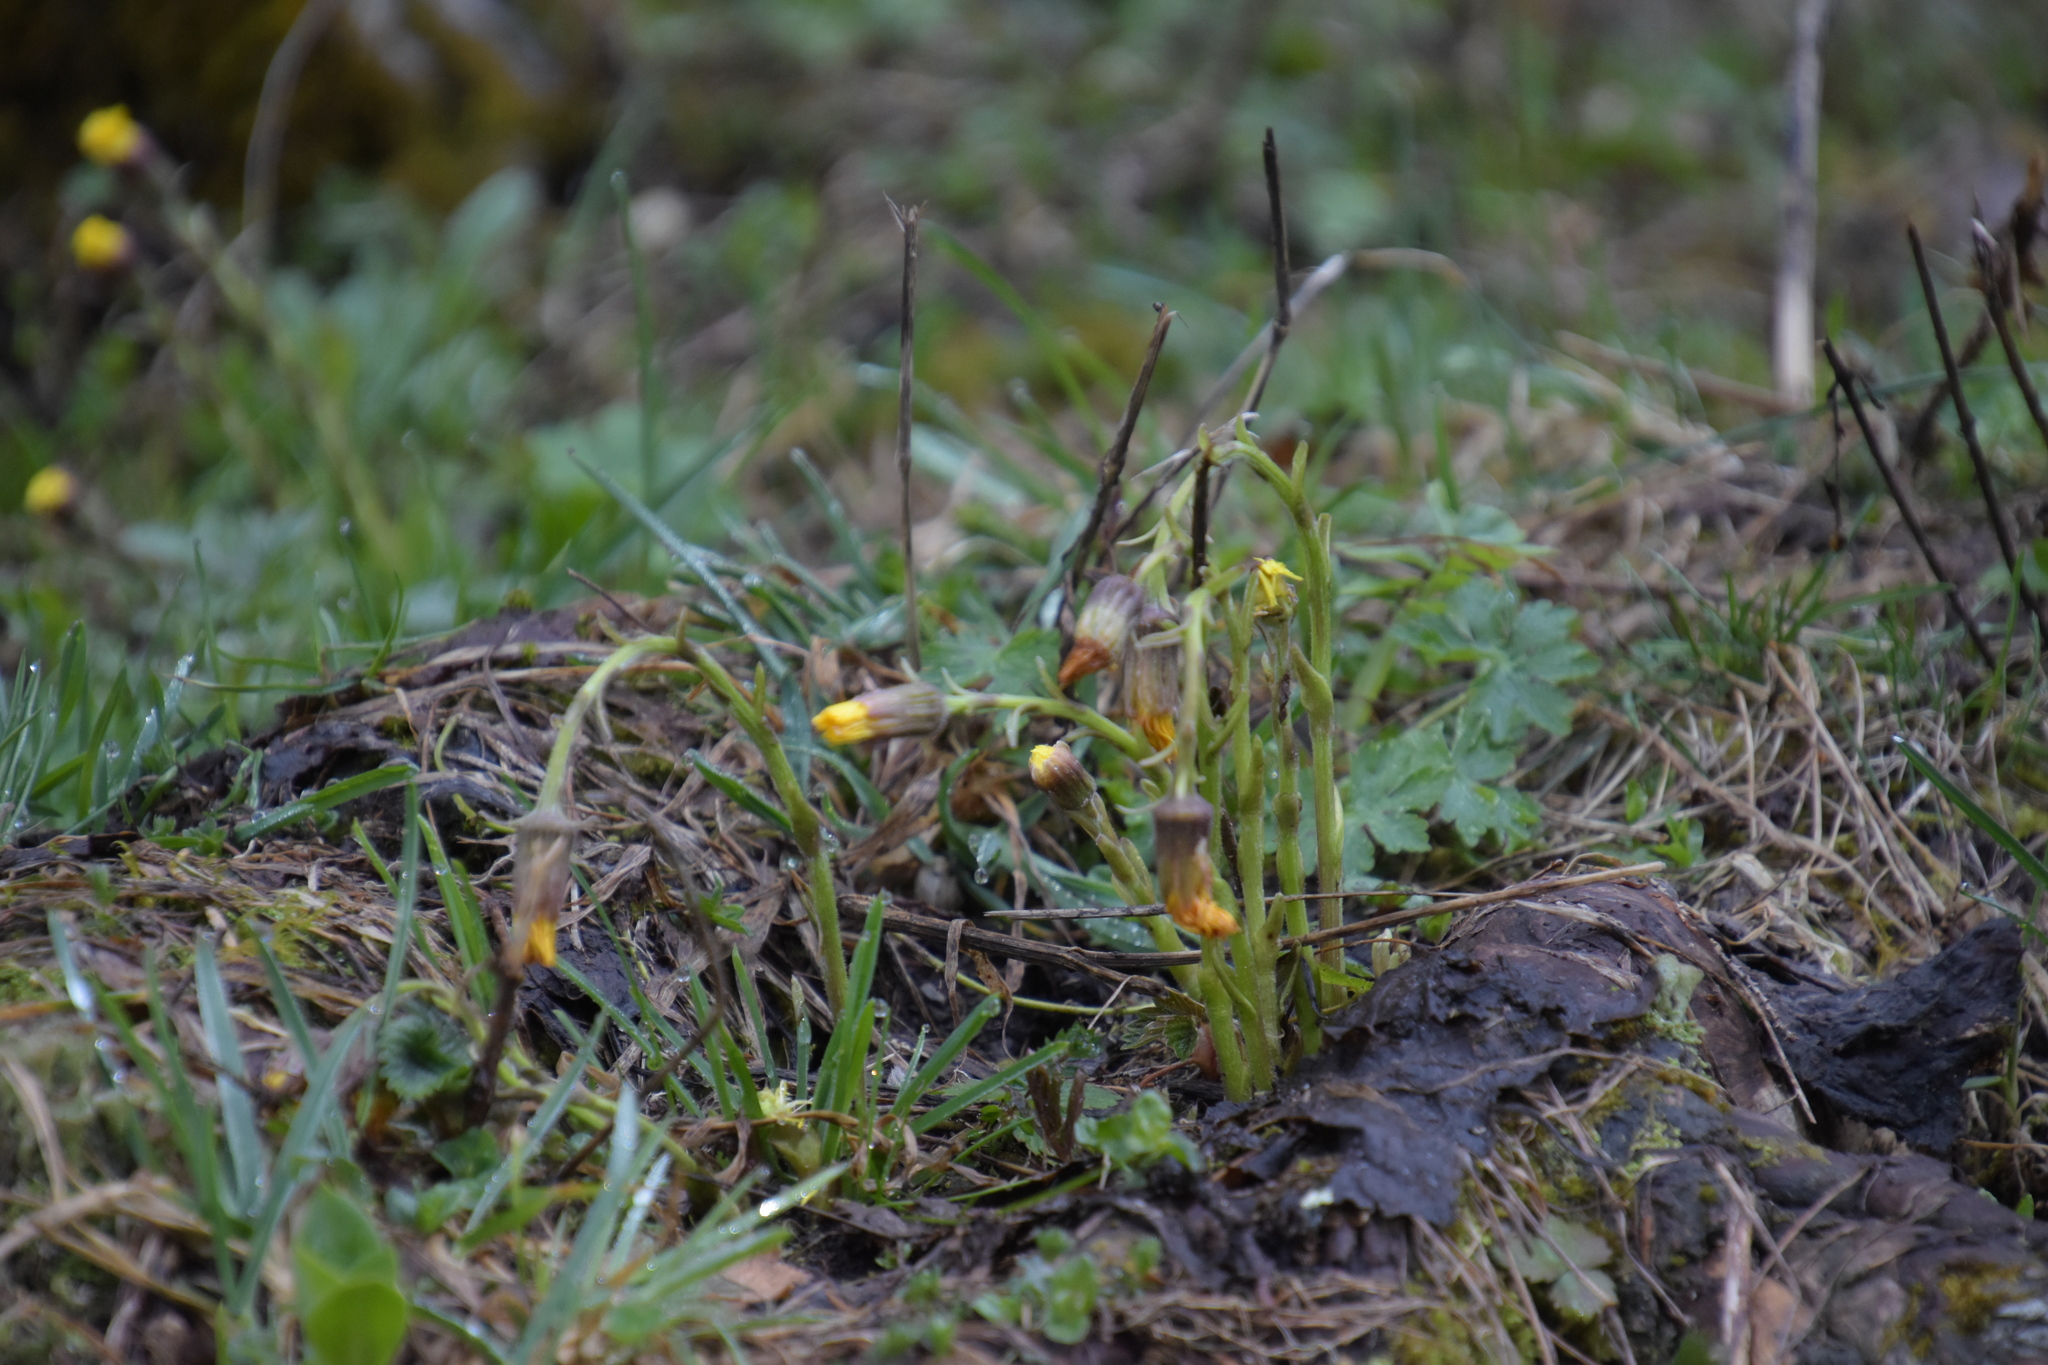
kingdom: Plantae
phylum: Tracheophyta
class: Magnoliopsida
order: Asterales
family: Asteraceae
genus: Tussilago
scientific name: Tussilago farfara
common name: Coltsfoot
